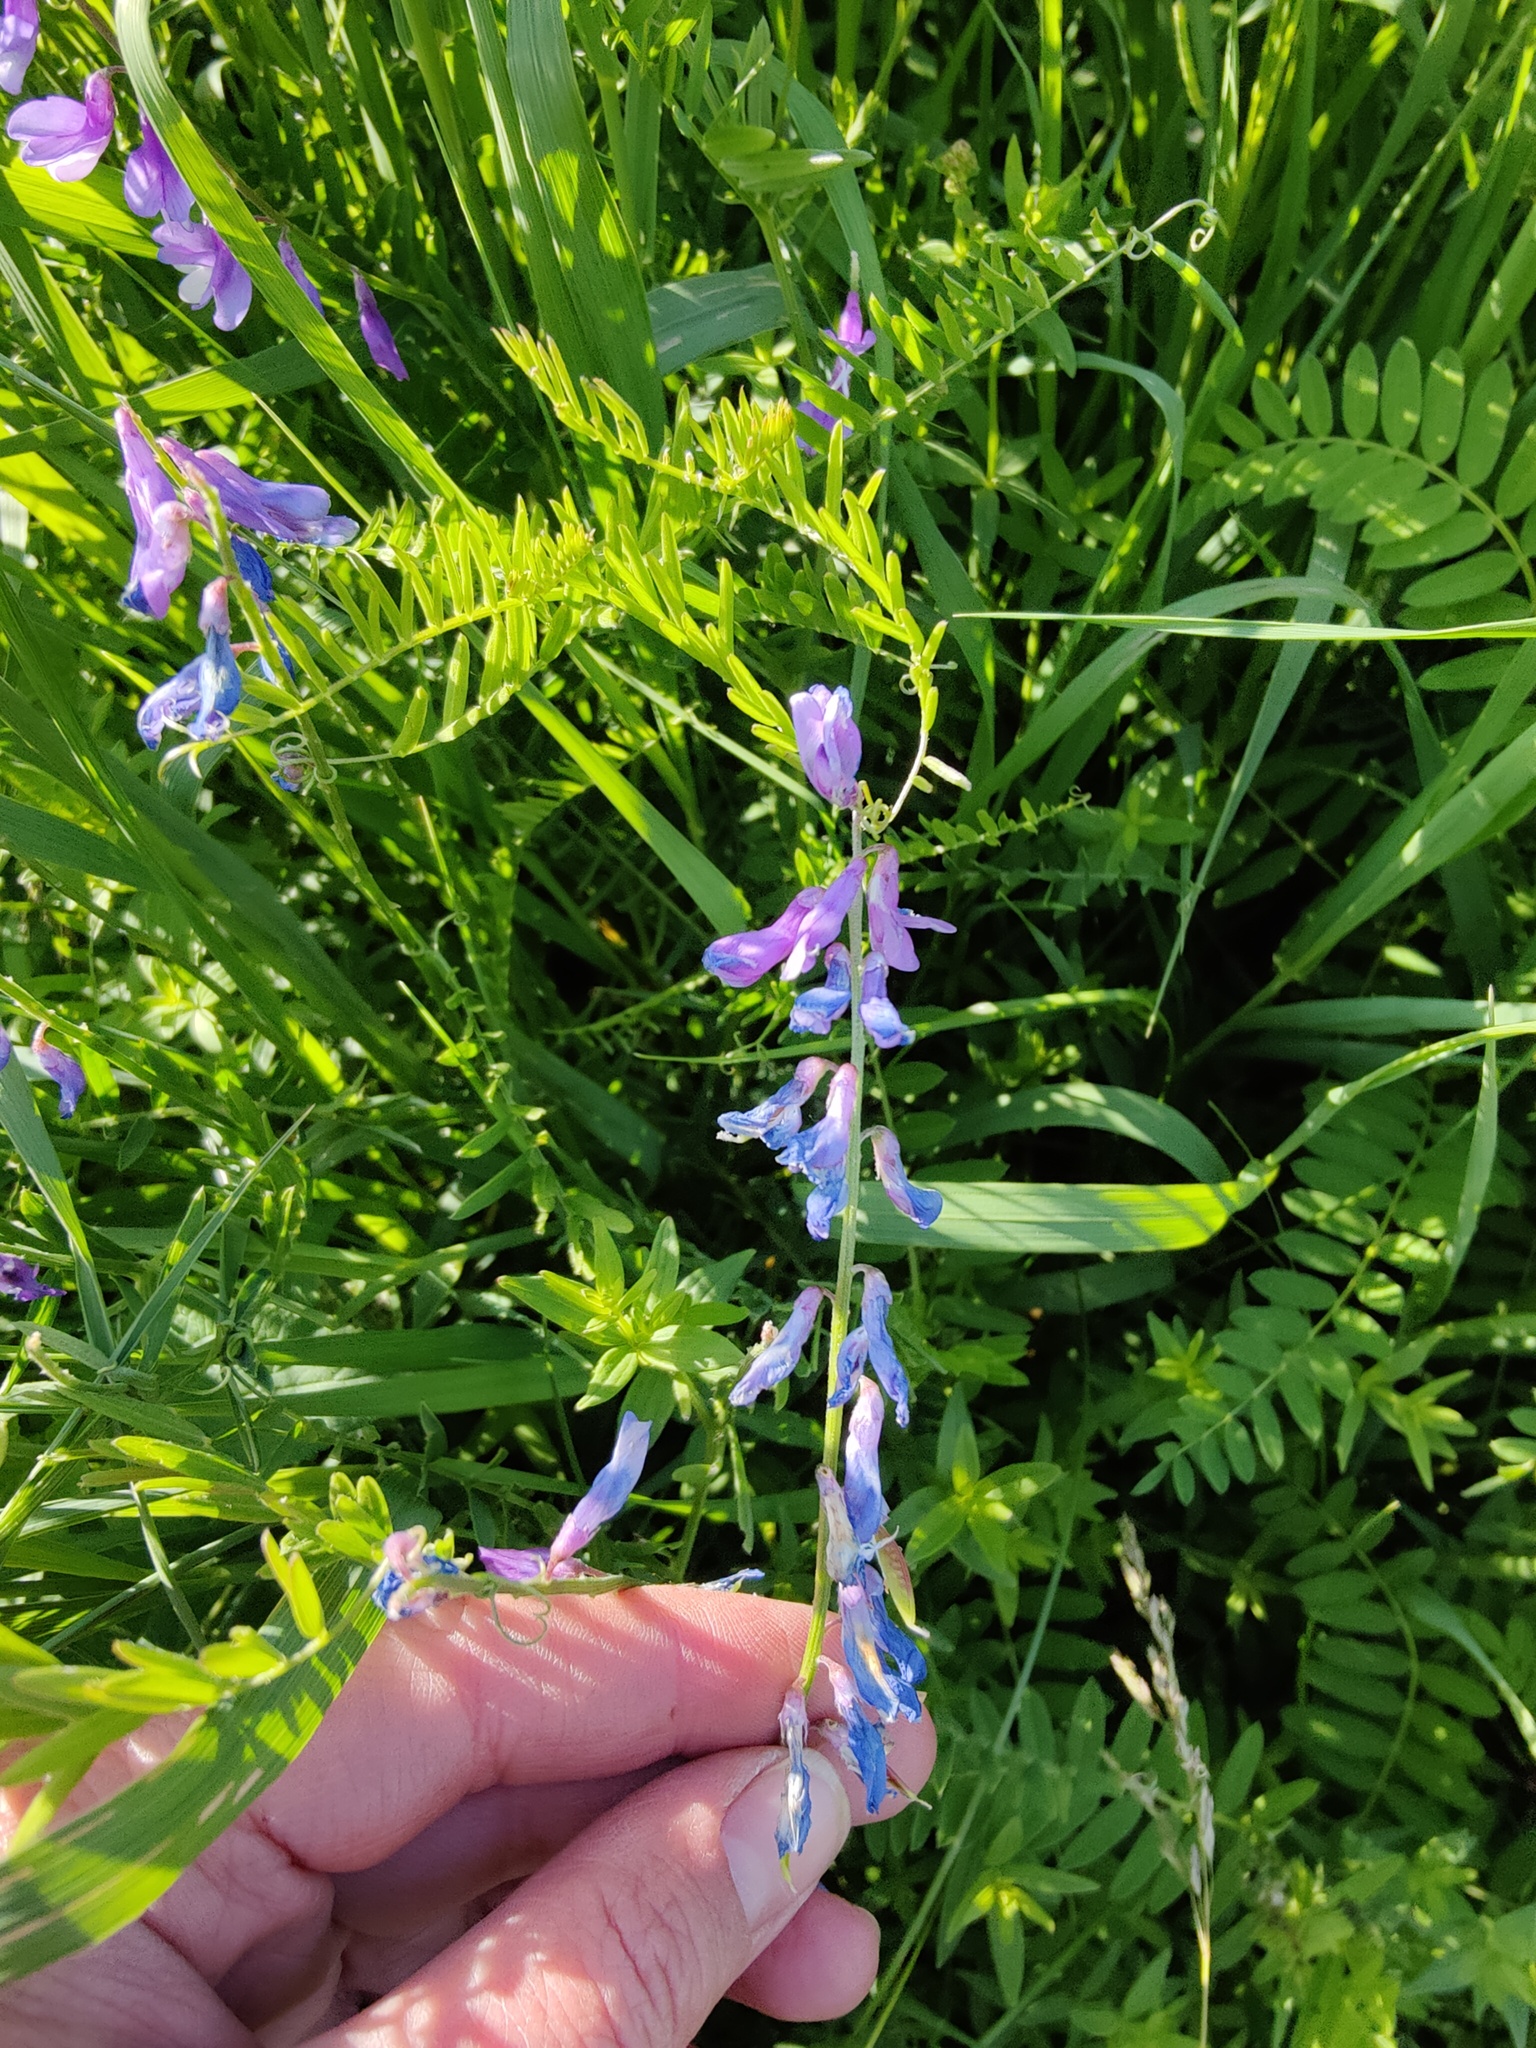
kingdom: Plantae
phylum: Tracheophyta
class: Magnoliopsida
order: Fabales
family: Fabaceae
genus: Vicia
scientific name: Vicia tenuifolia
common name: Fine-leaved vetch
